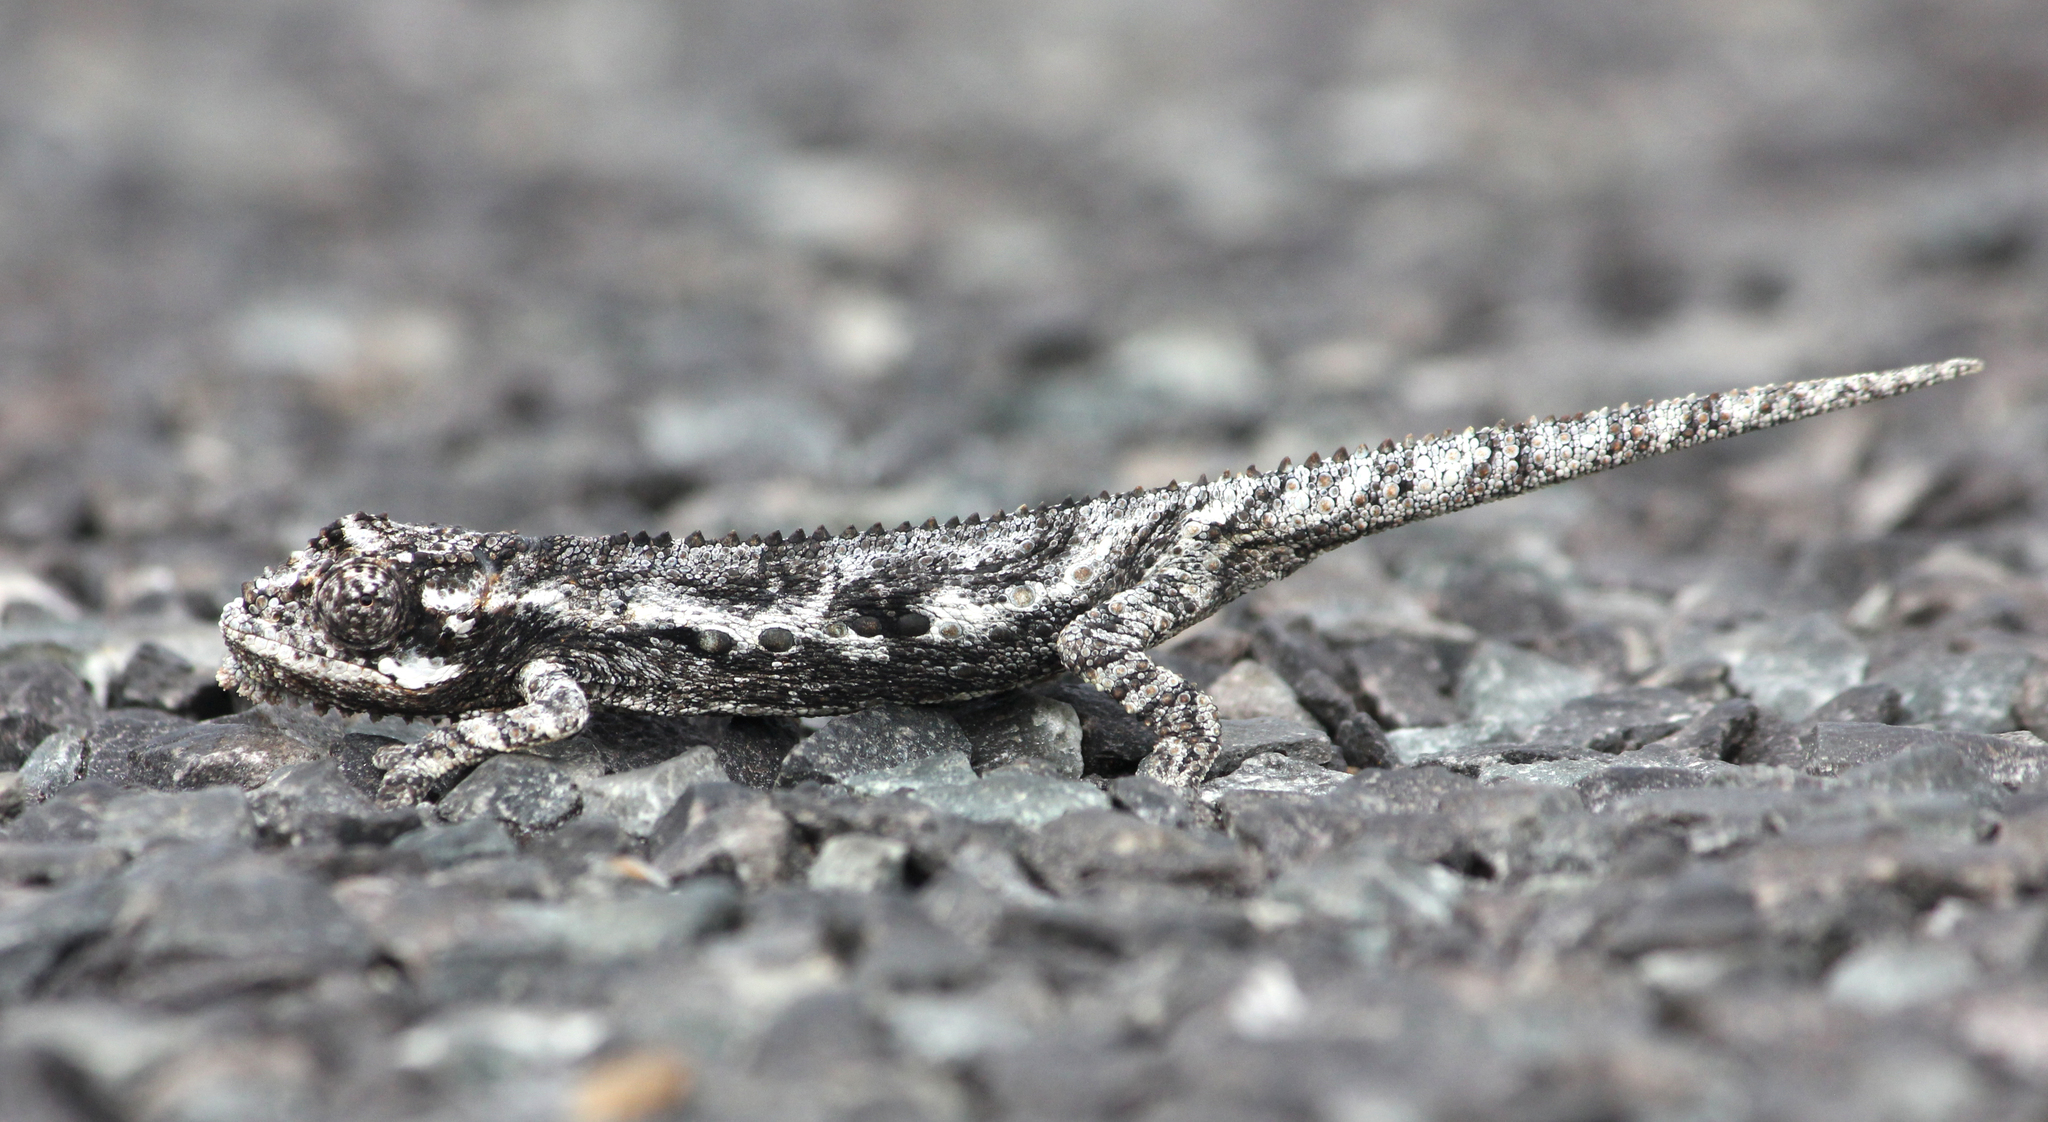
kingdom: Animalia
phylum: Chordata
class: Squamata
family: Chamaeleonidae
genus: Bradypodion
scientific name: Bradypodion occidentale
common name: Western dwarf chameleon
